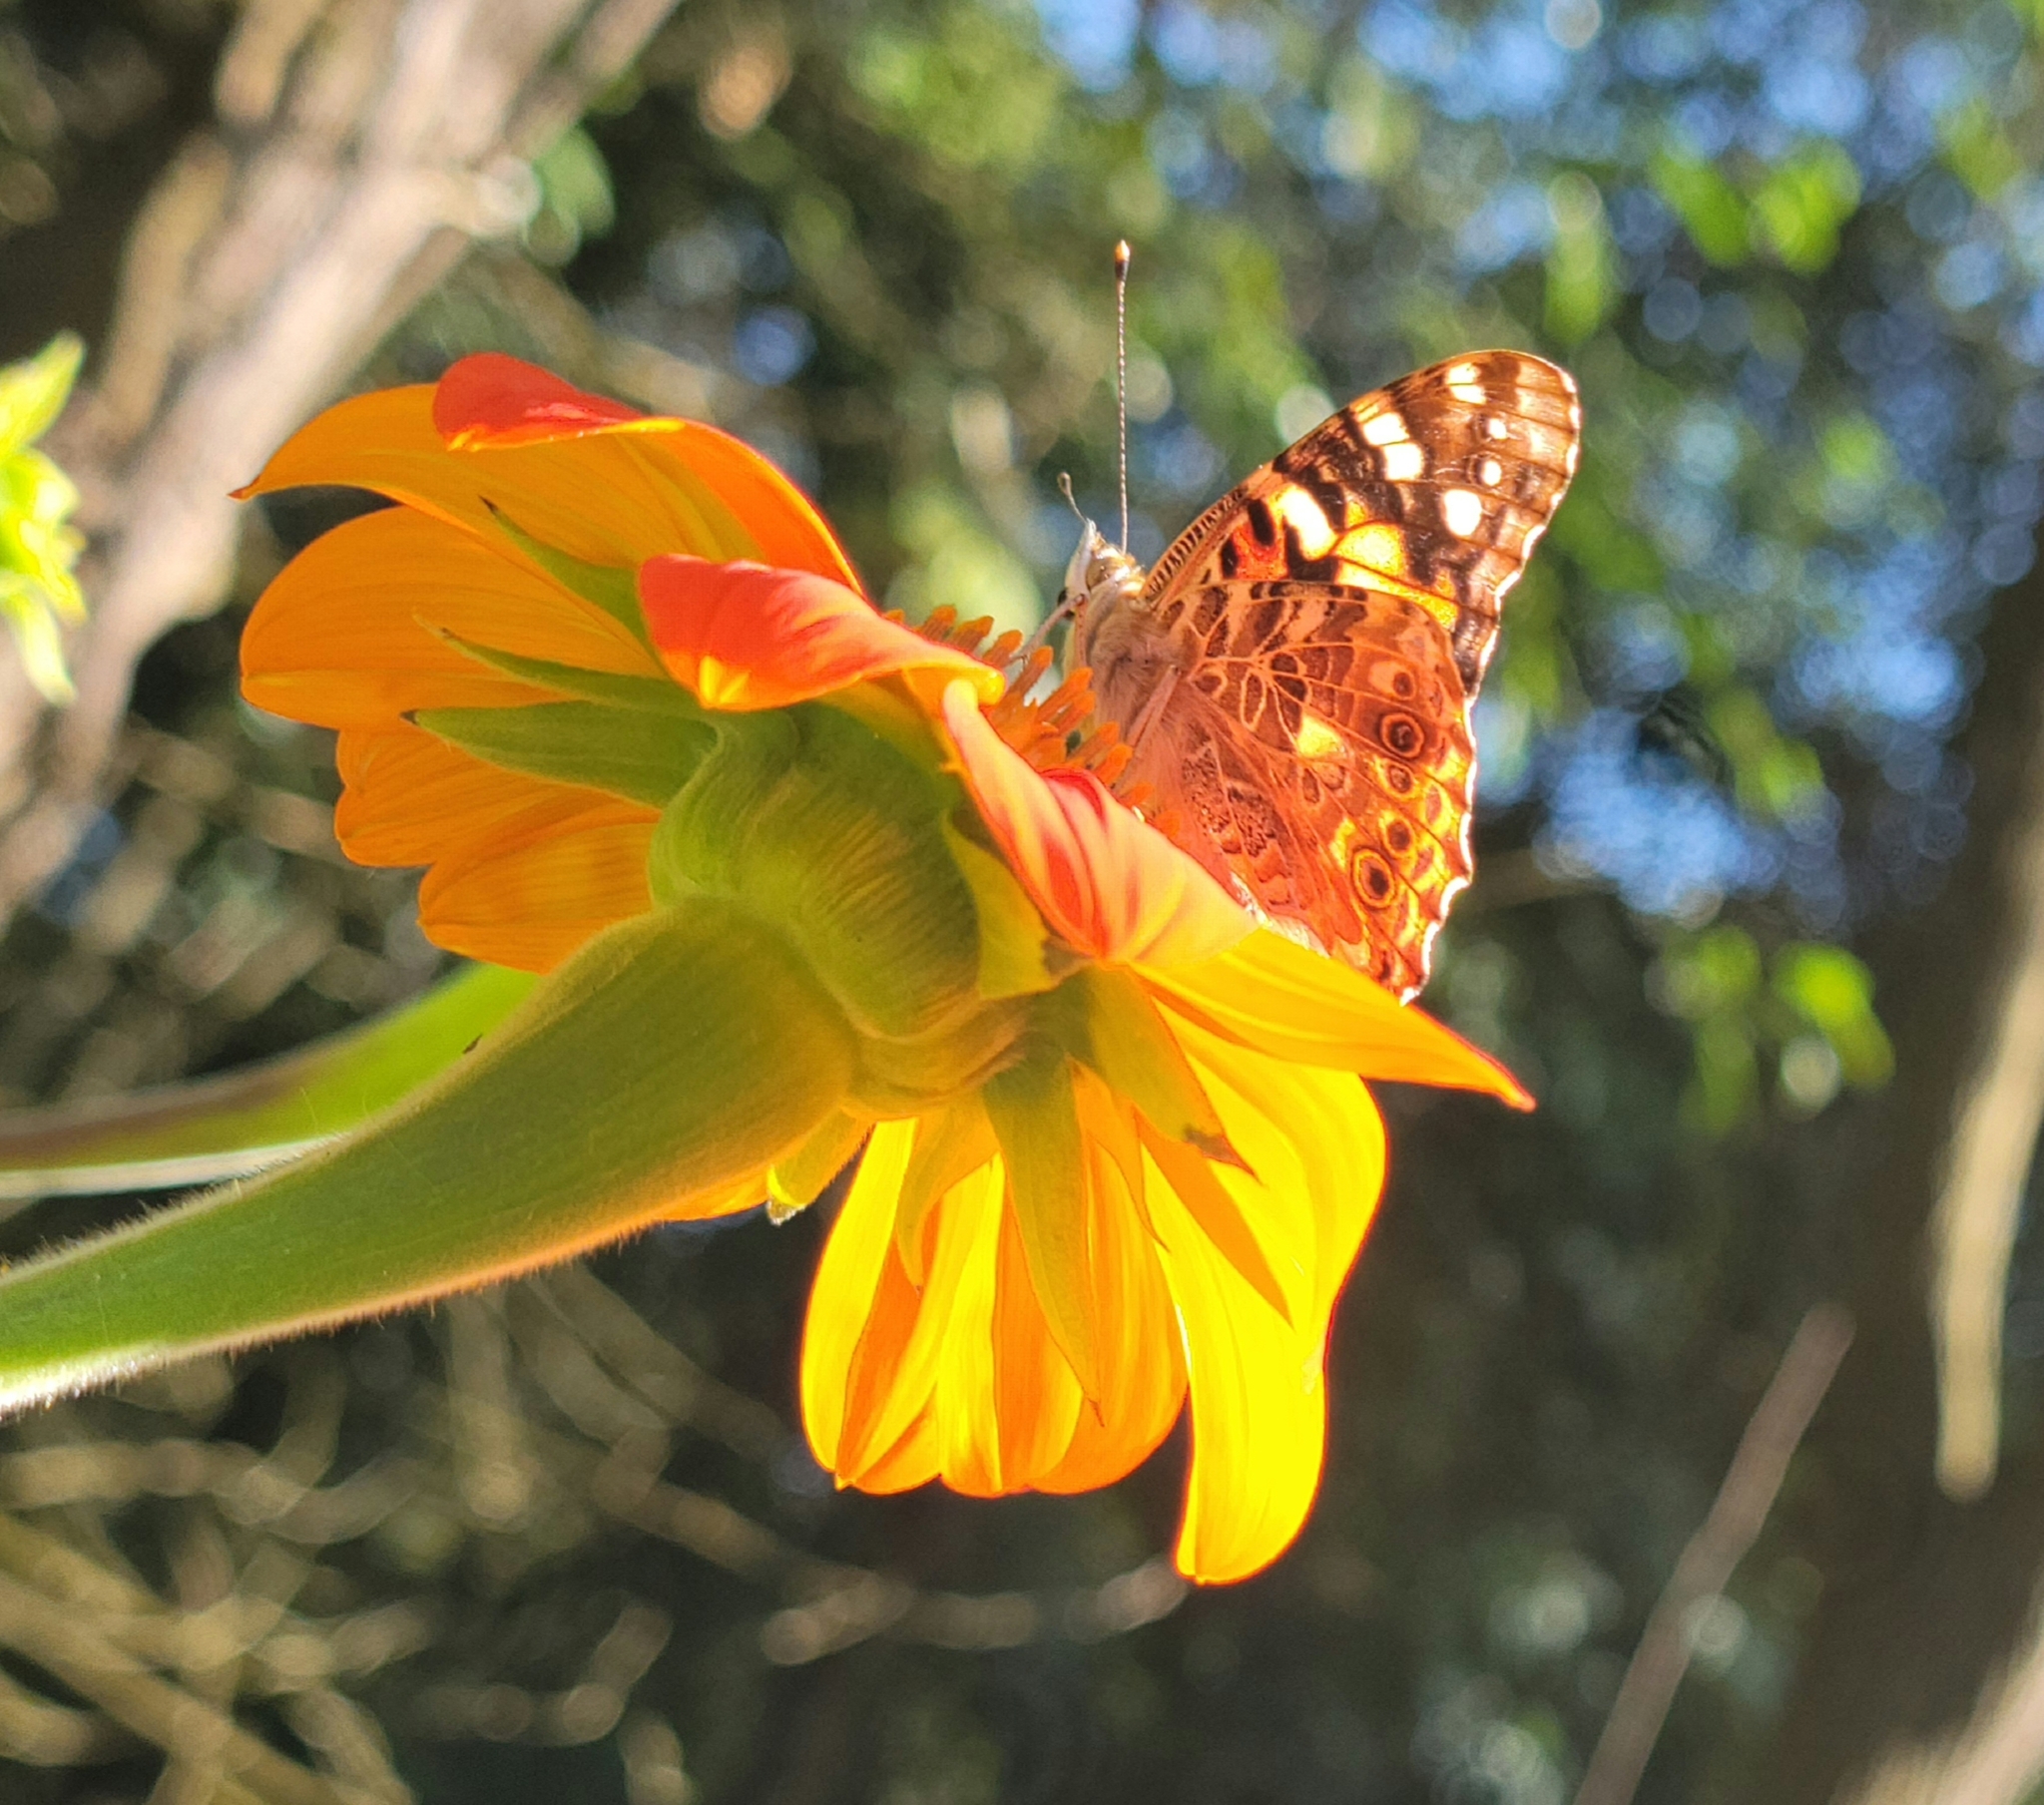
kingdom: Animalia
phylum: Arthropoda
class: Insecta
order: Lepidoptera
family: Nymphalidae
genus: Vanessa
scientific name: Vanessa cardui
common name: Painted lady
